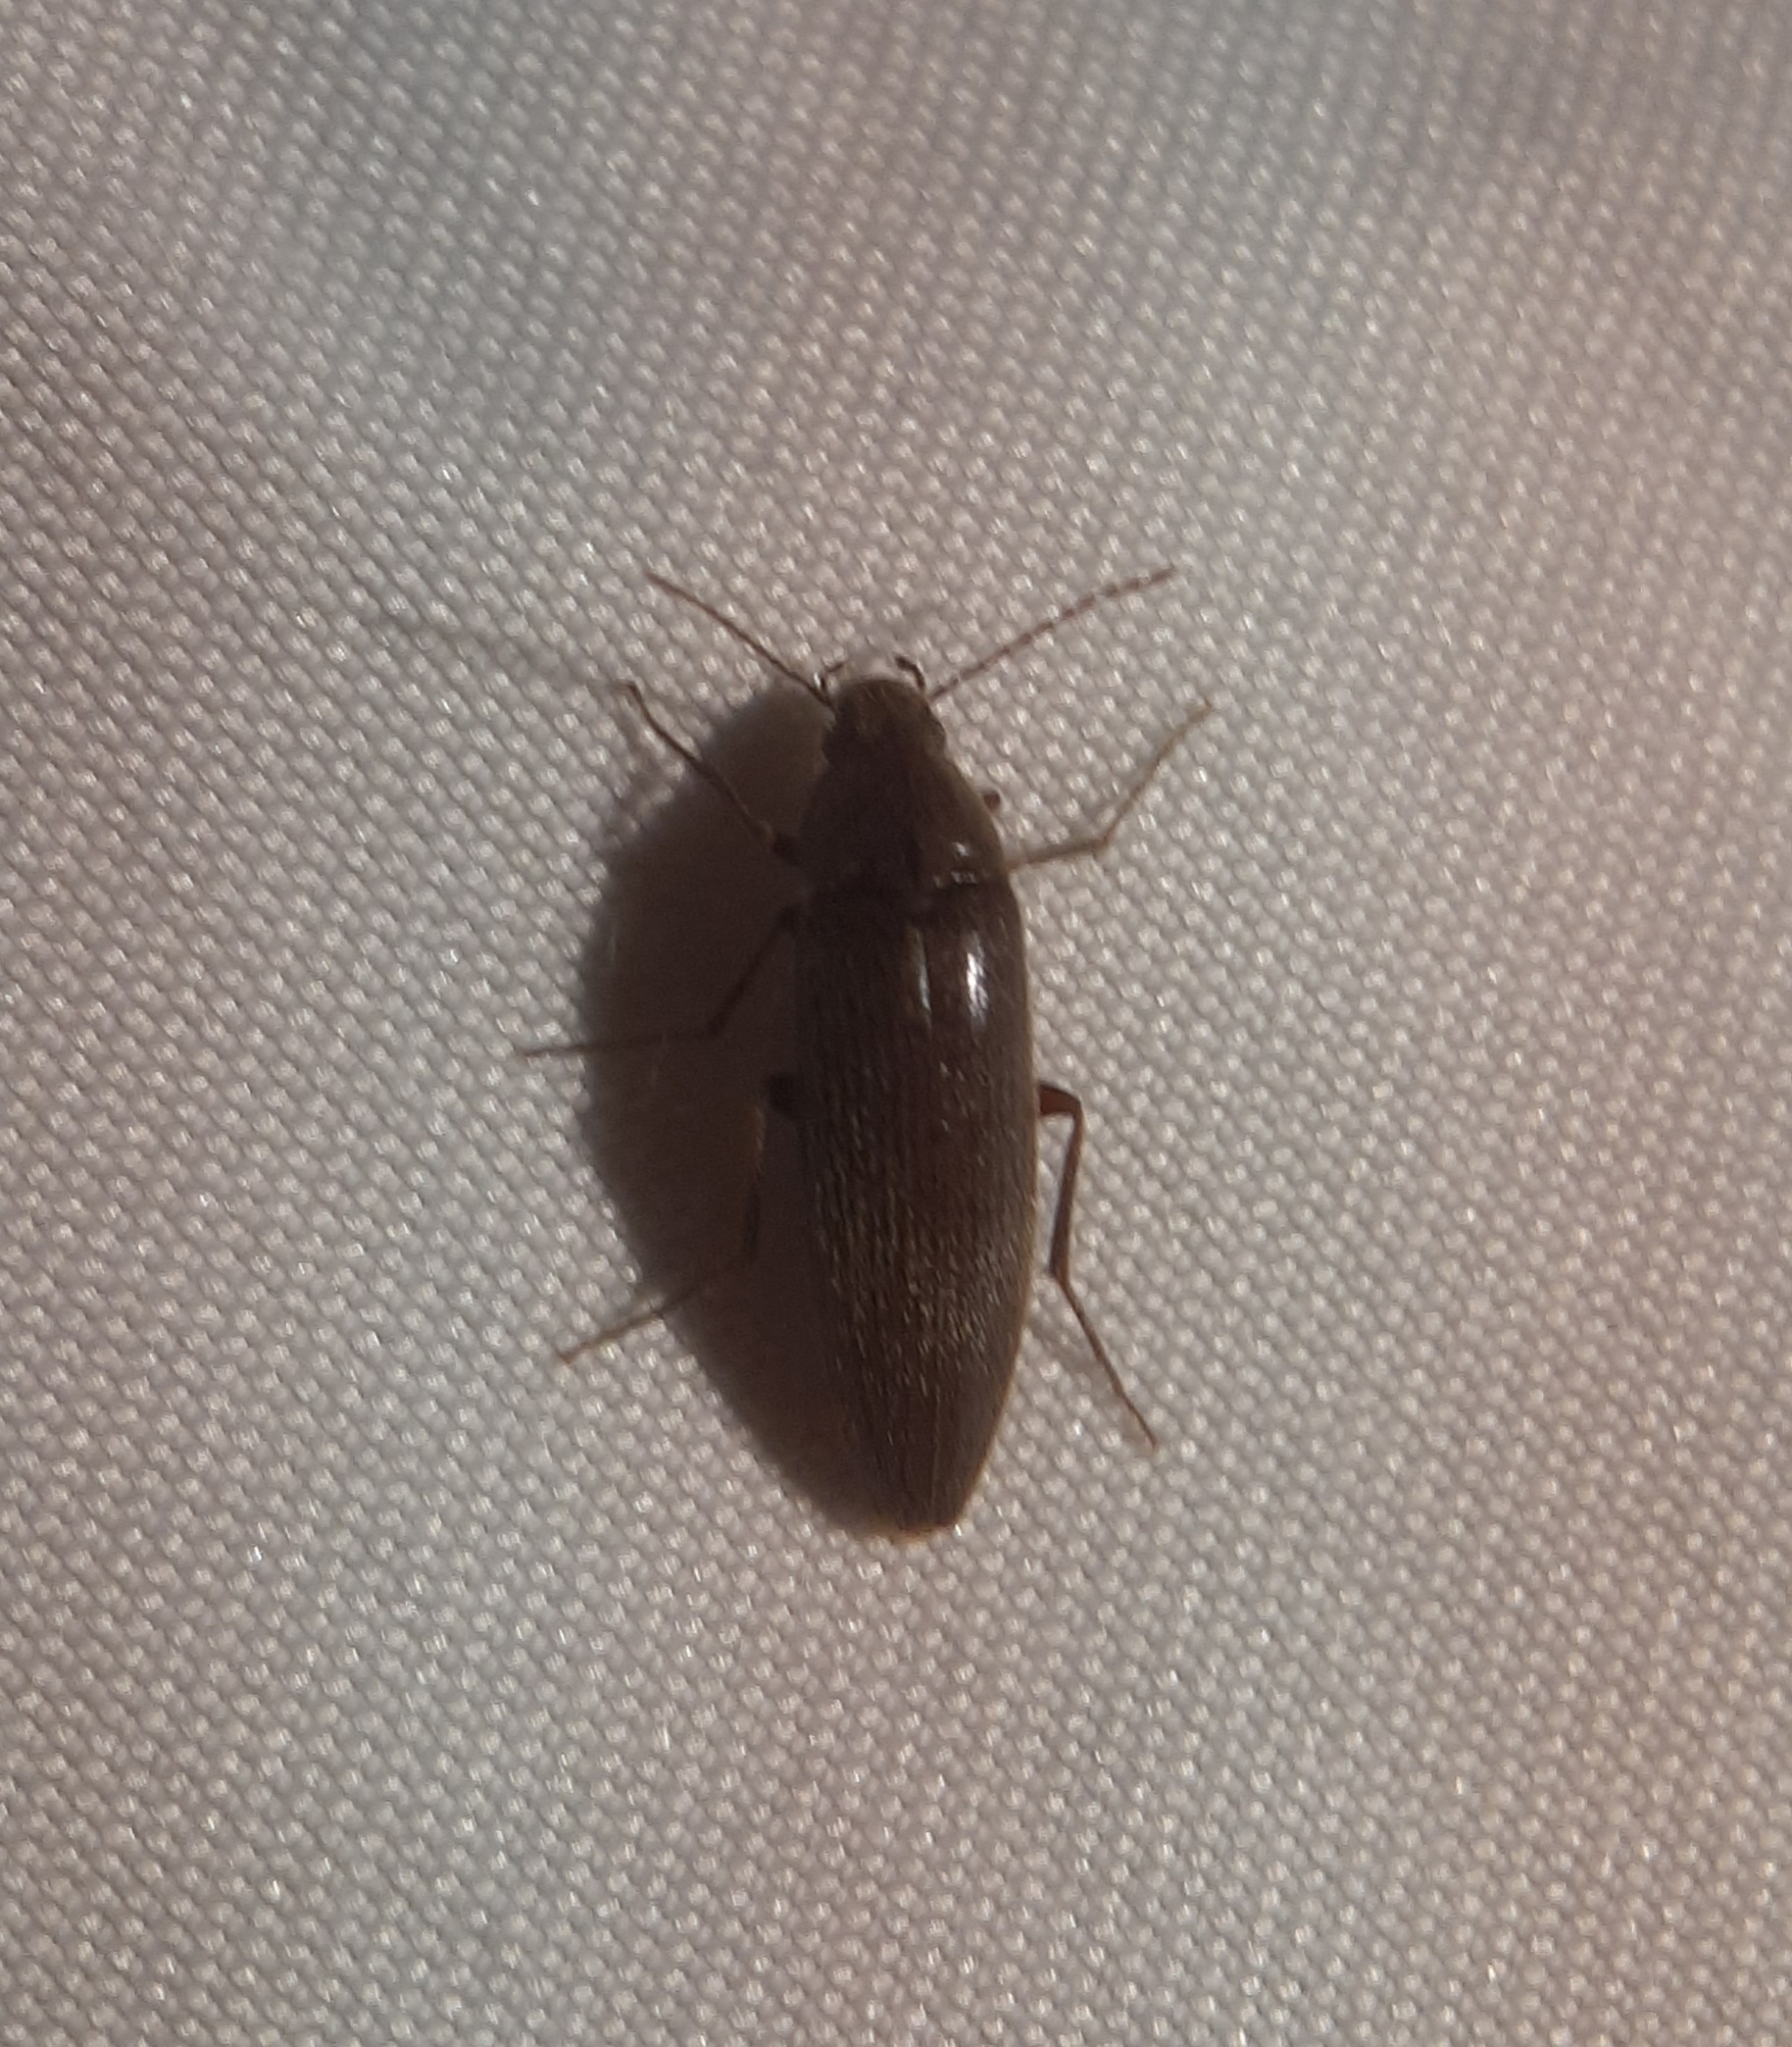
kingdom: Animalia
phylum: Arthropoda
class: Insecta
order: Coleoptera
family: Synchroidae
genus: Synchroa
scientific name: Synchroa punctata
